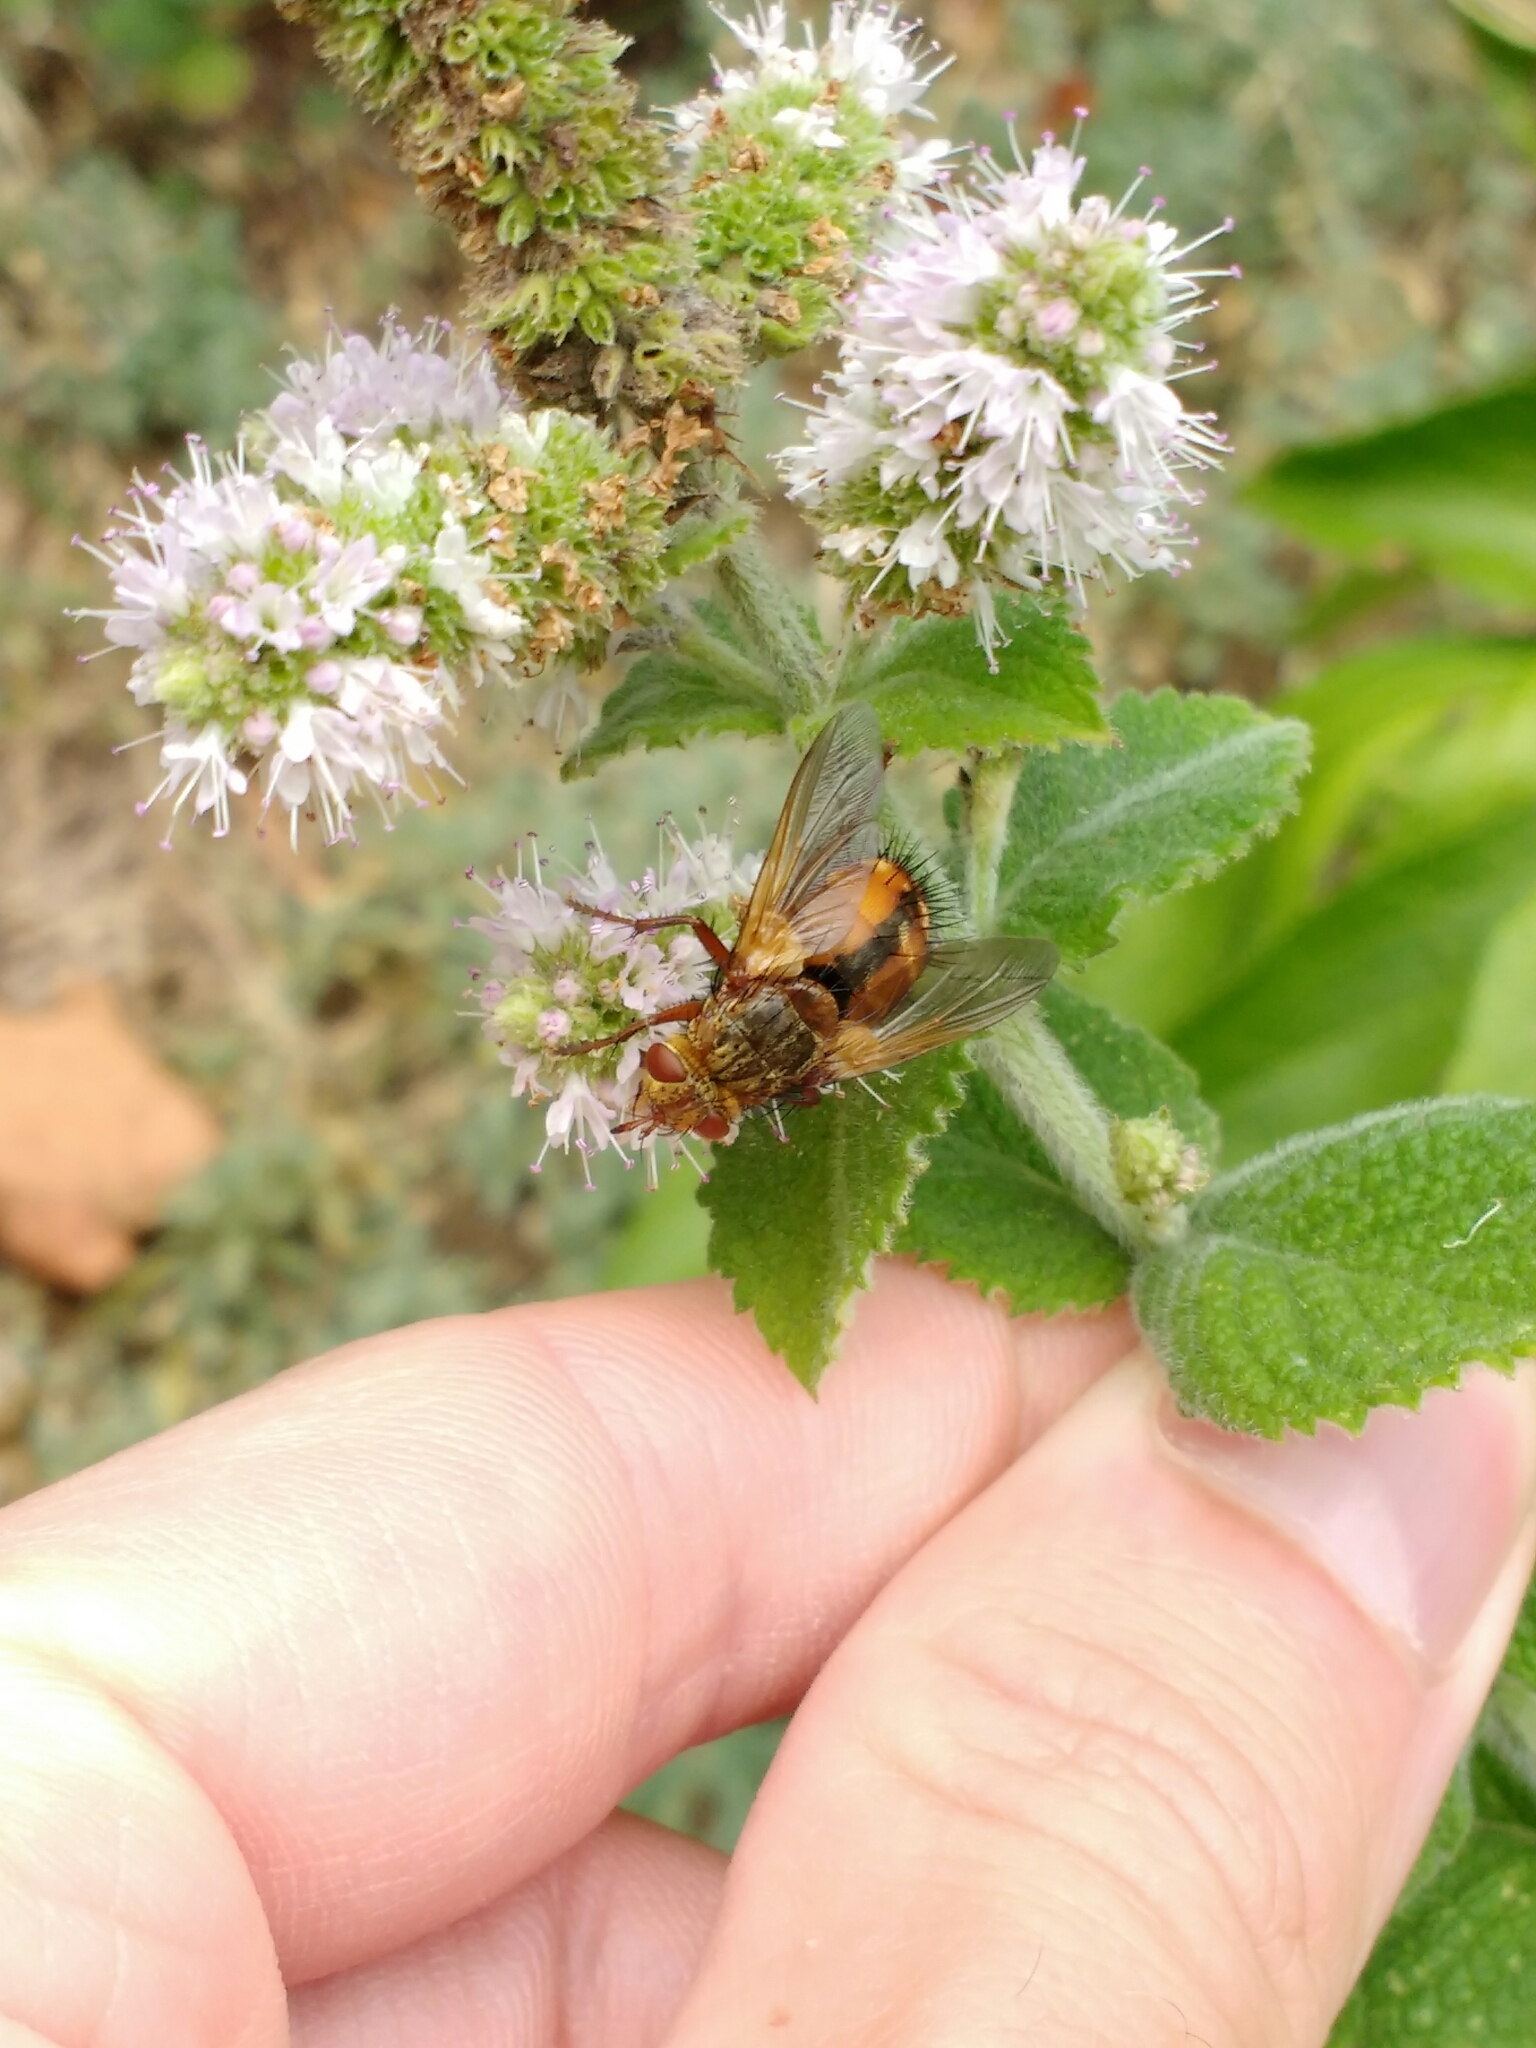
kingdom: Animalia
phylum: Arthropoda
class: Insecta
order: Diptera
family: Tachinidae
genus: Tachina
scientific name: Tachina fera
